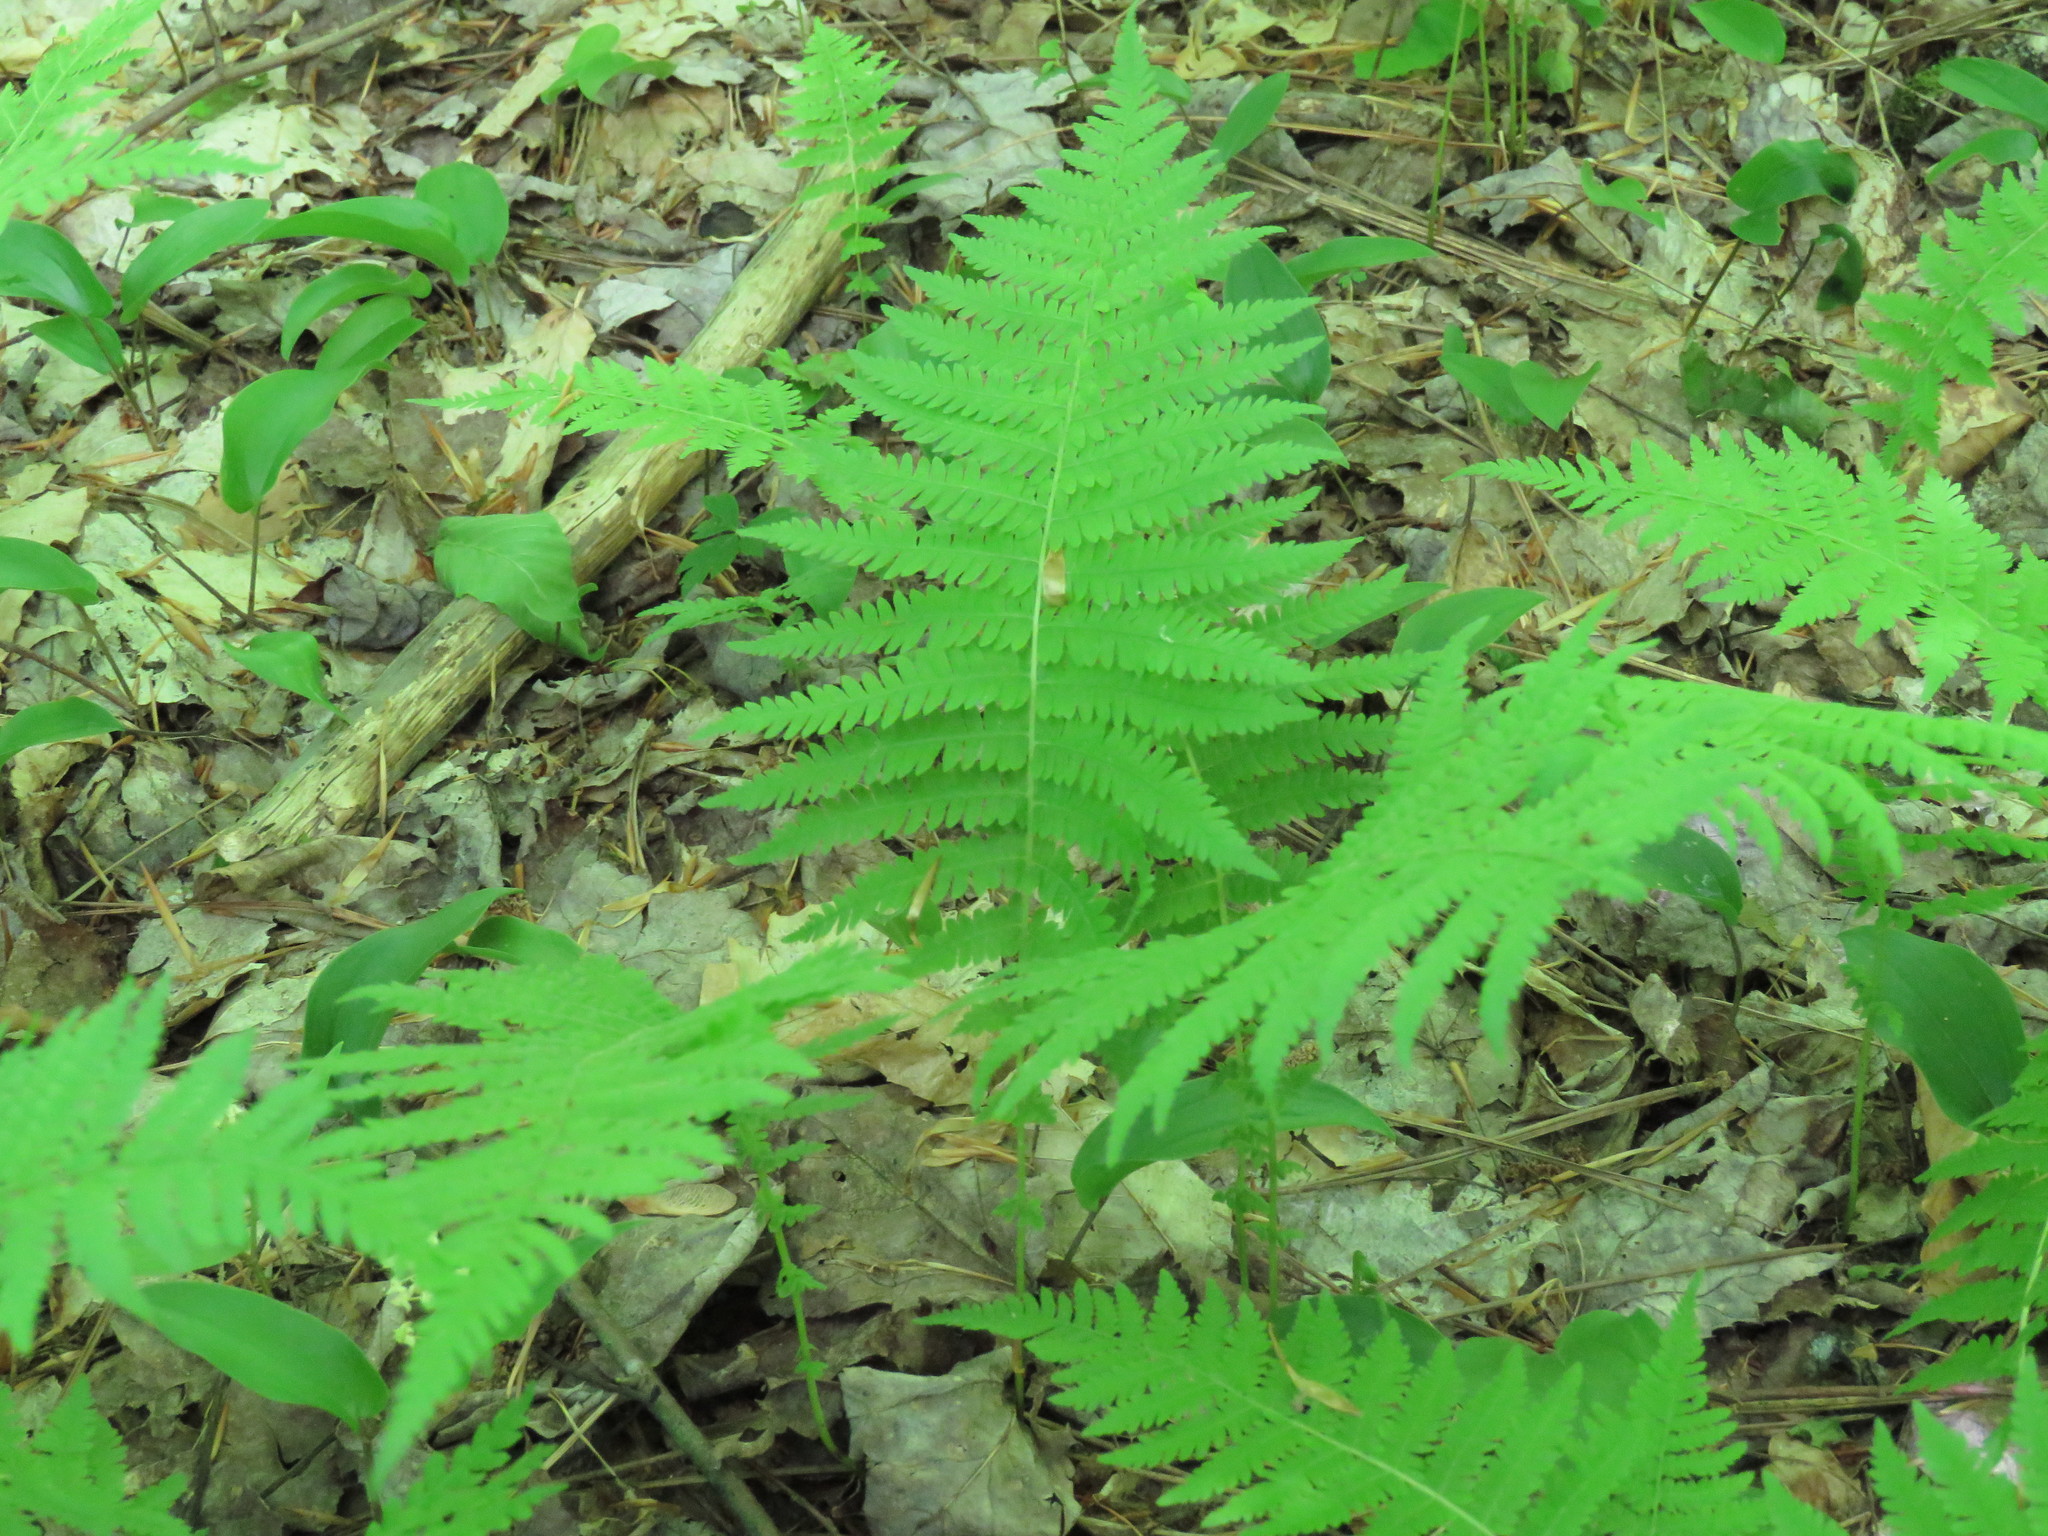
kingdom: Plantae
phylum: Tracheophyta
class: Polypodiopsida
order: Polypodiales
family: Thelypteridaceae
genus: Amauropelta
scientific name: Amauropelta noveboracensis
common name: New york fern
